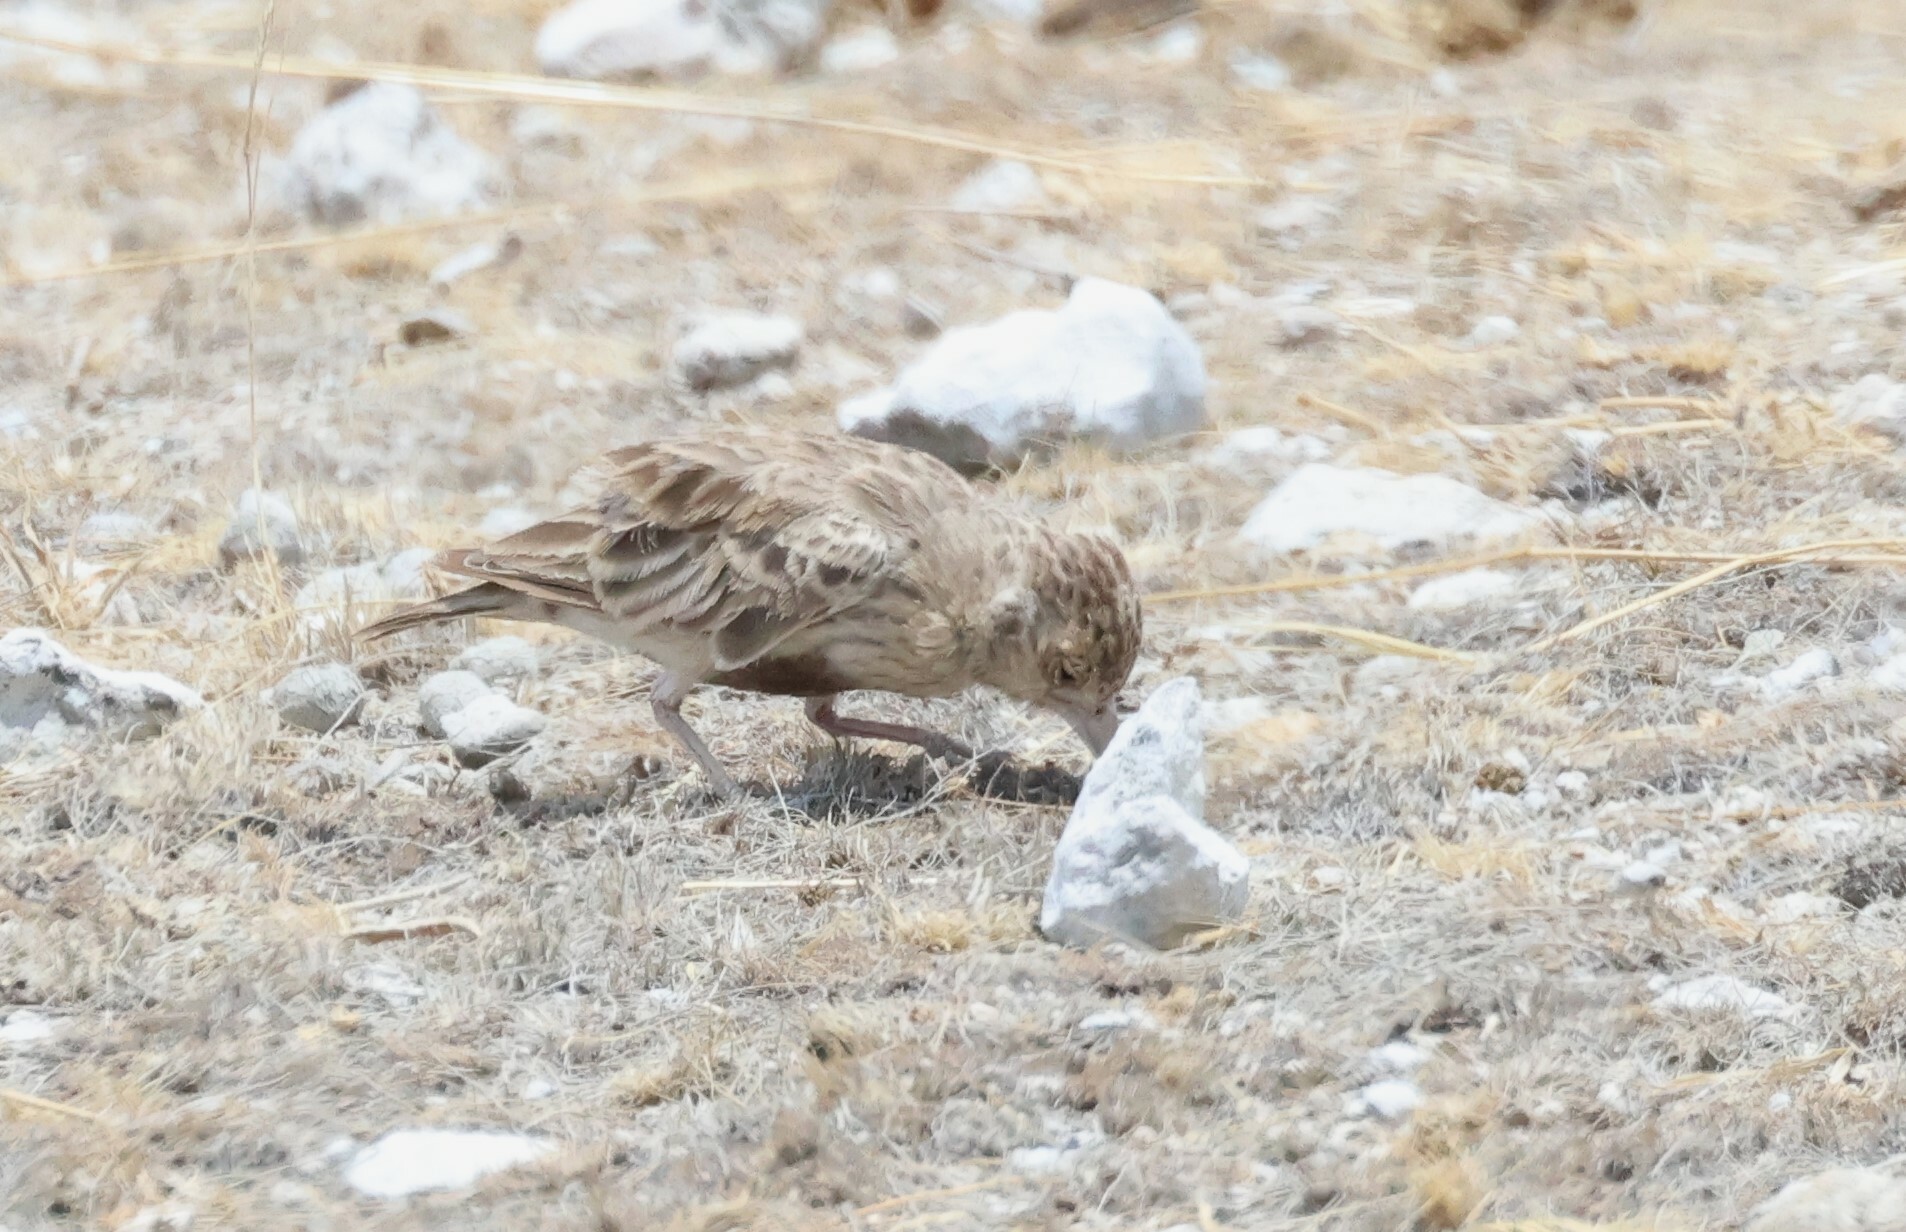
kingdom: Animalia
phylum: Chordata
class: Aves
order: Passeriformes
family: Alaudidae
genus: Eremopterix
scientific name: Eremopterix verticalis
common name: Grey-backed sparrow-lark
